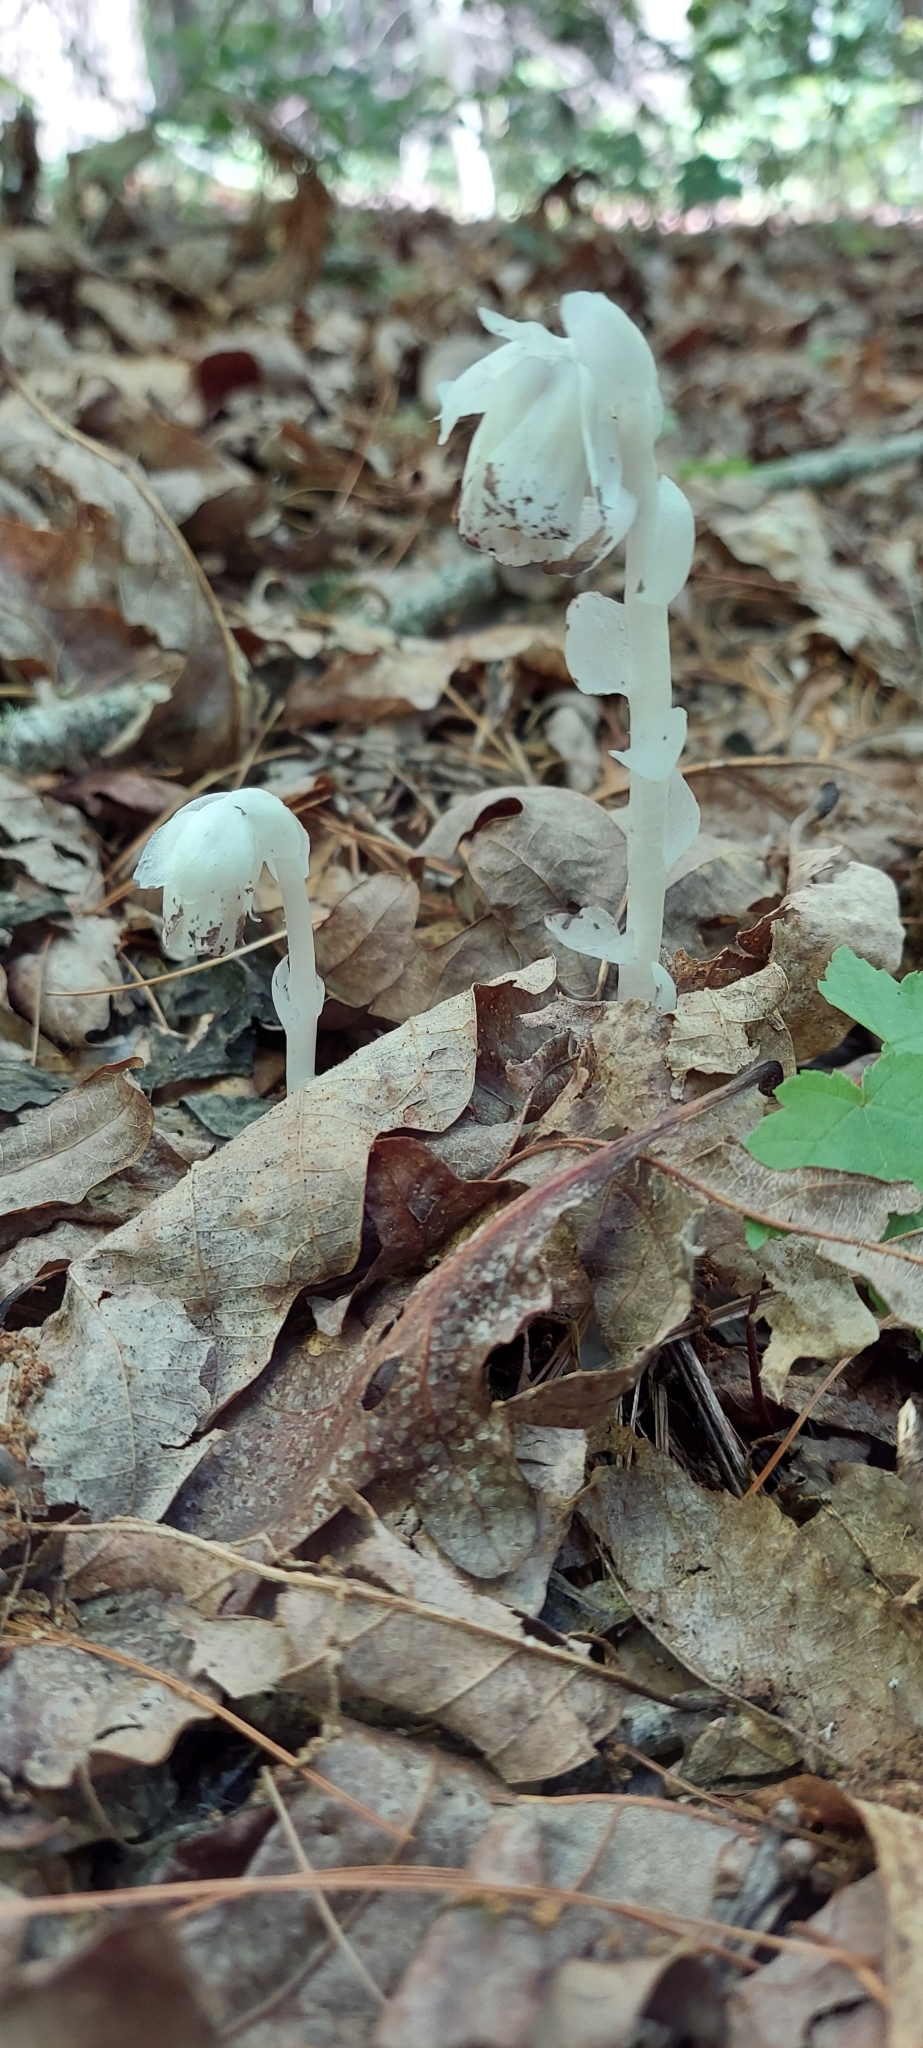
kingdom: Plantae
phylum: Tracheophyta
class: Magnoliopsida
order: Ericales
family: Ericaceae
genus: Monotropa
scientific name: Monotropa uniflora
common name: Convulsion root
